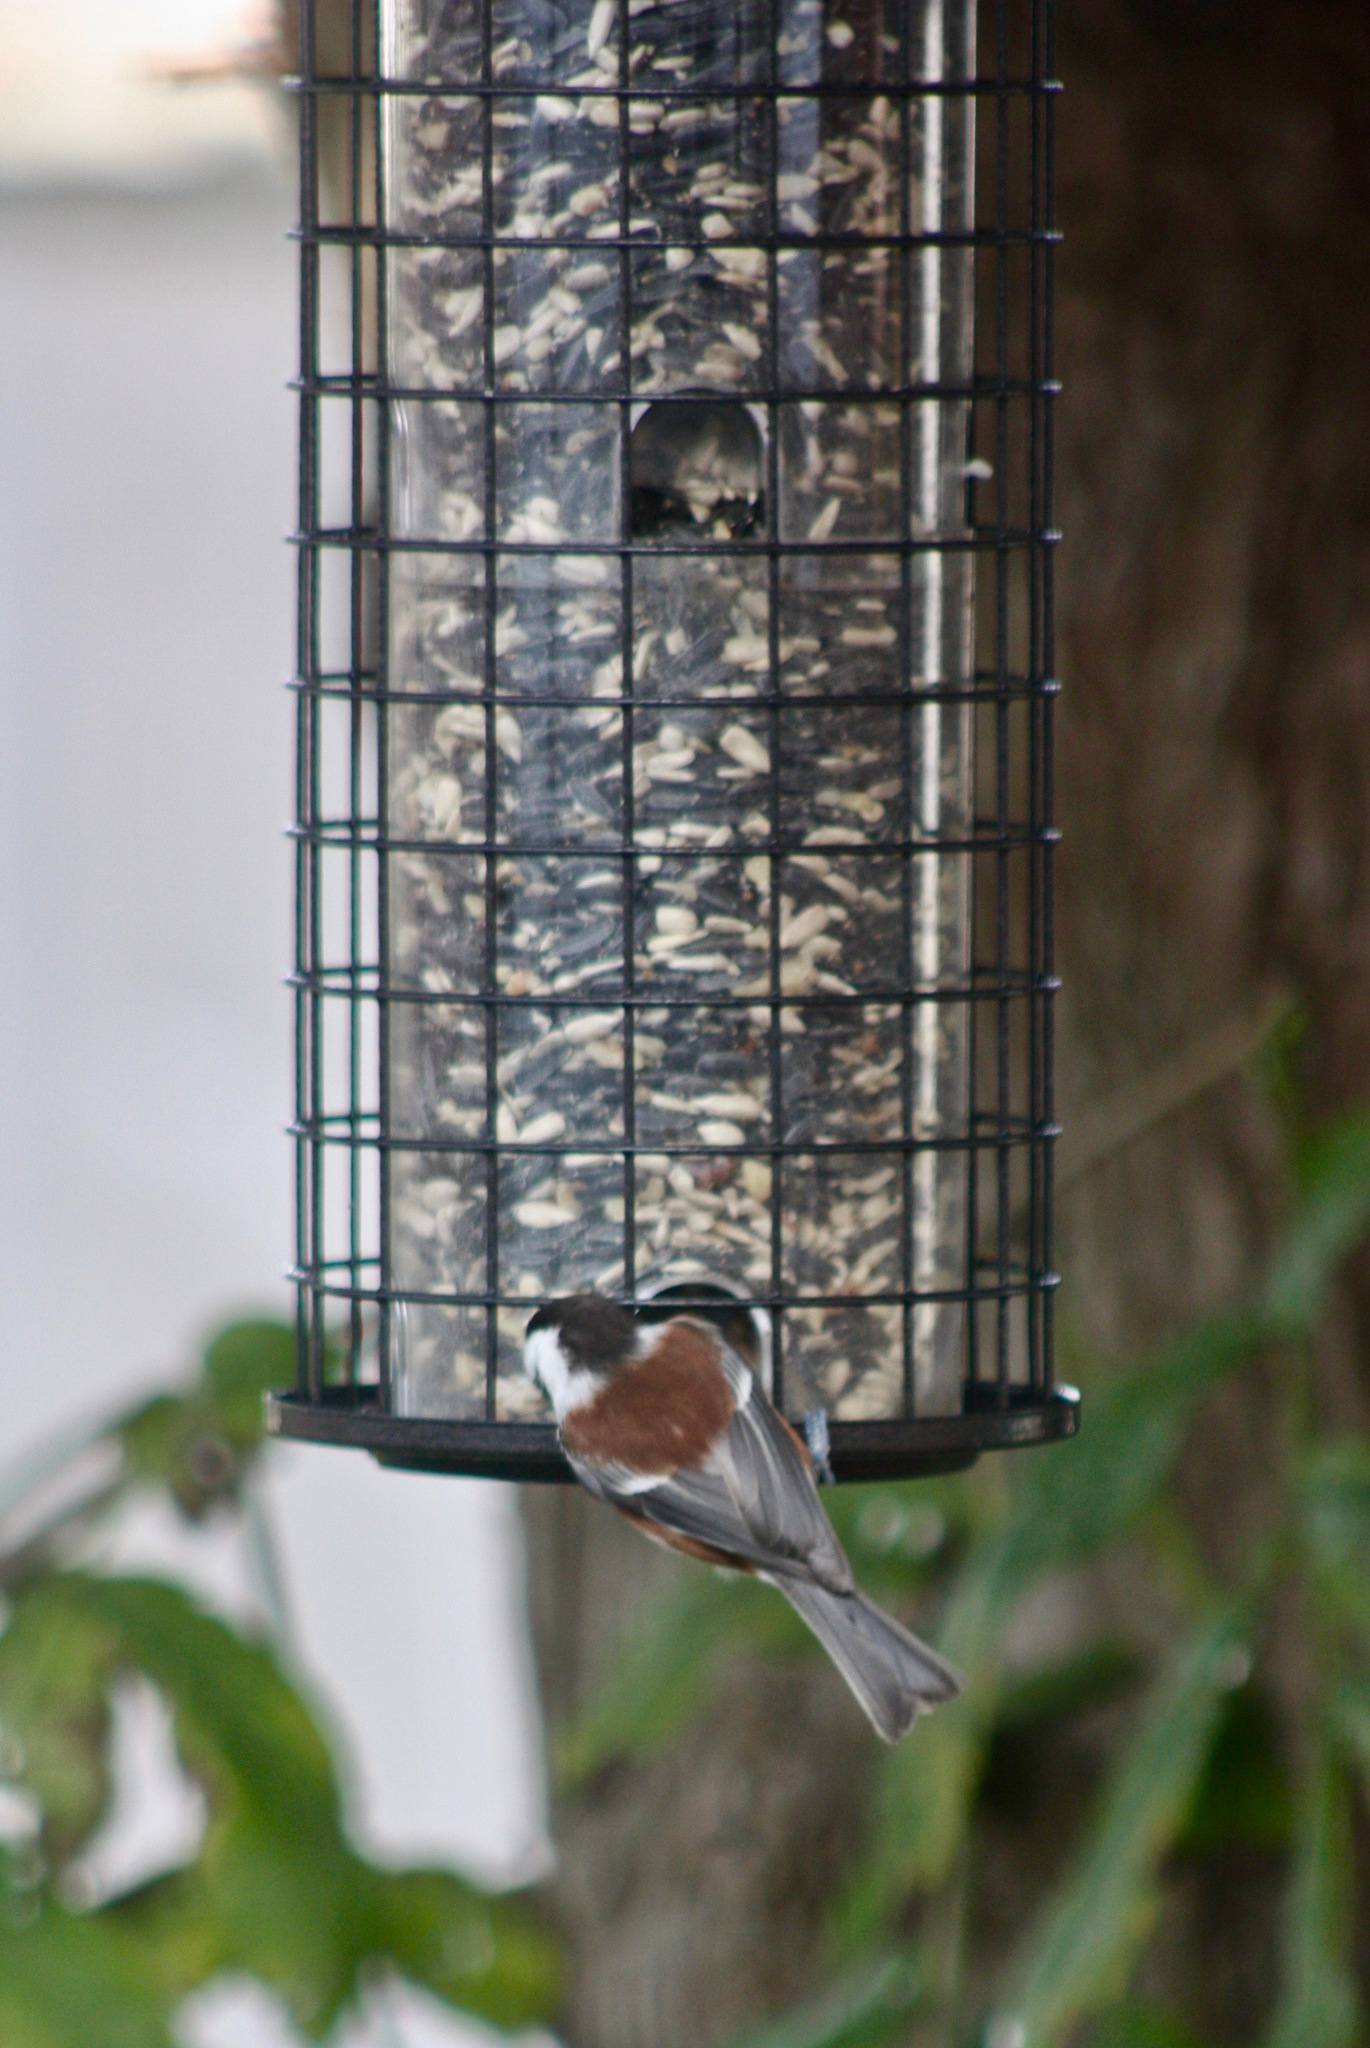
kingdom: Animalia
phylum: Chordata
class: Aves
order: Passeriformes
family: Paridae
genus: Poecile
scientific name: Poecile rufescens
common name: Chestnut-backed chickadee
